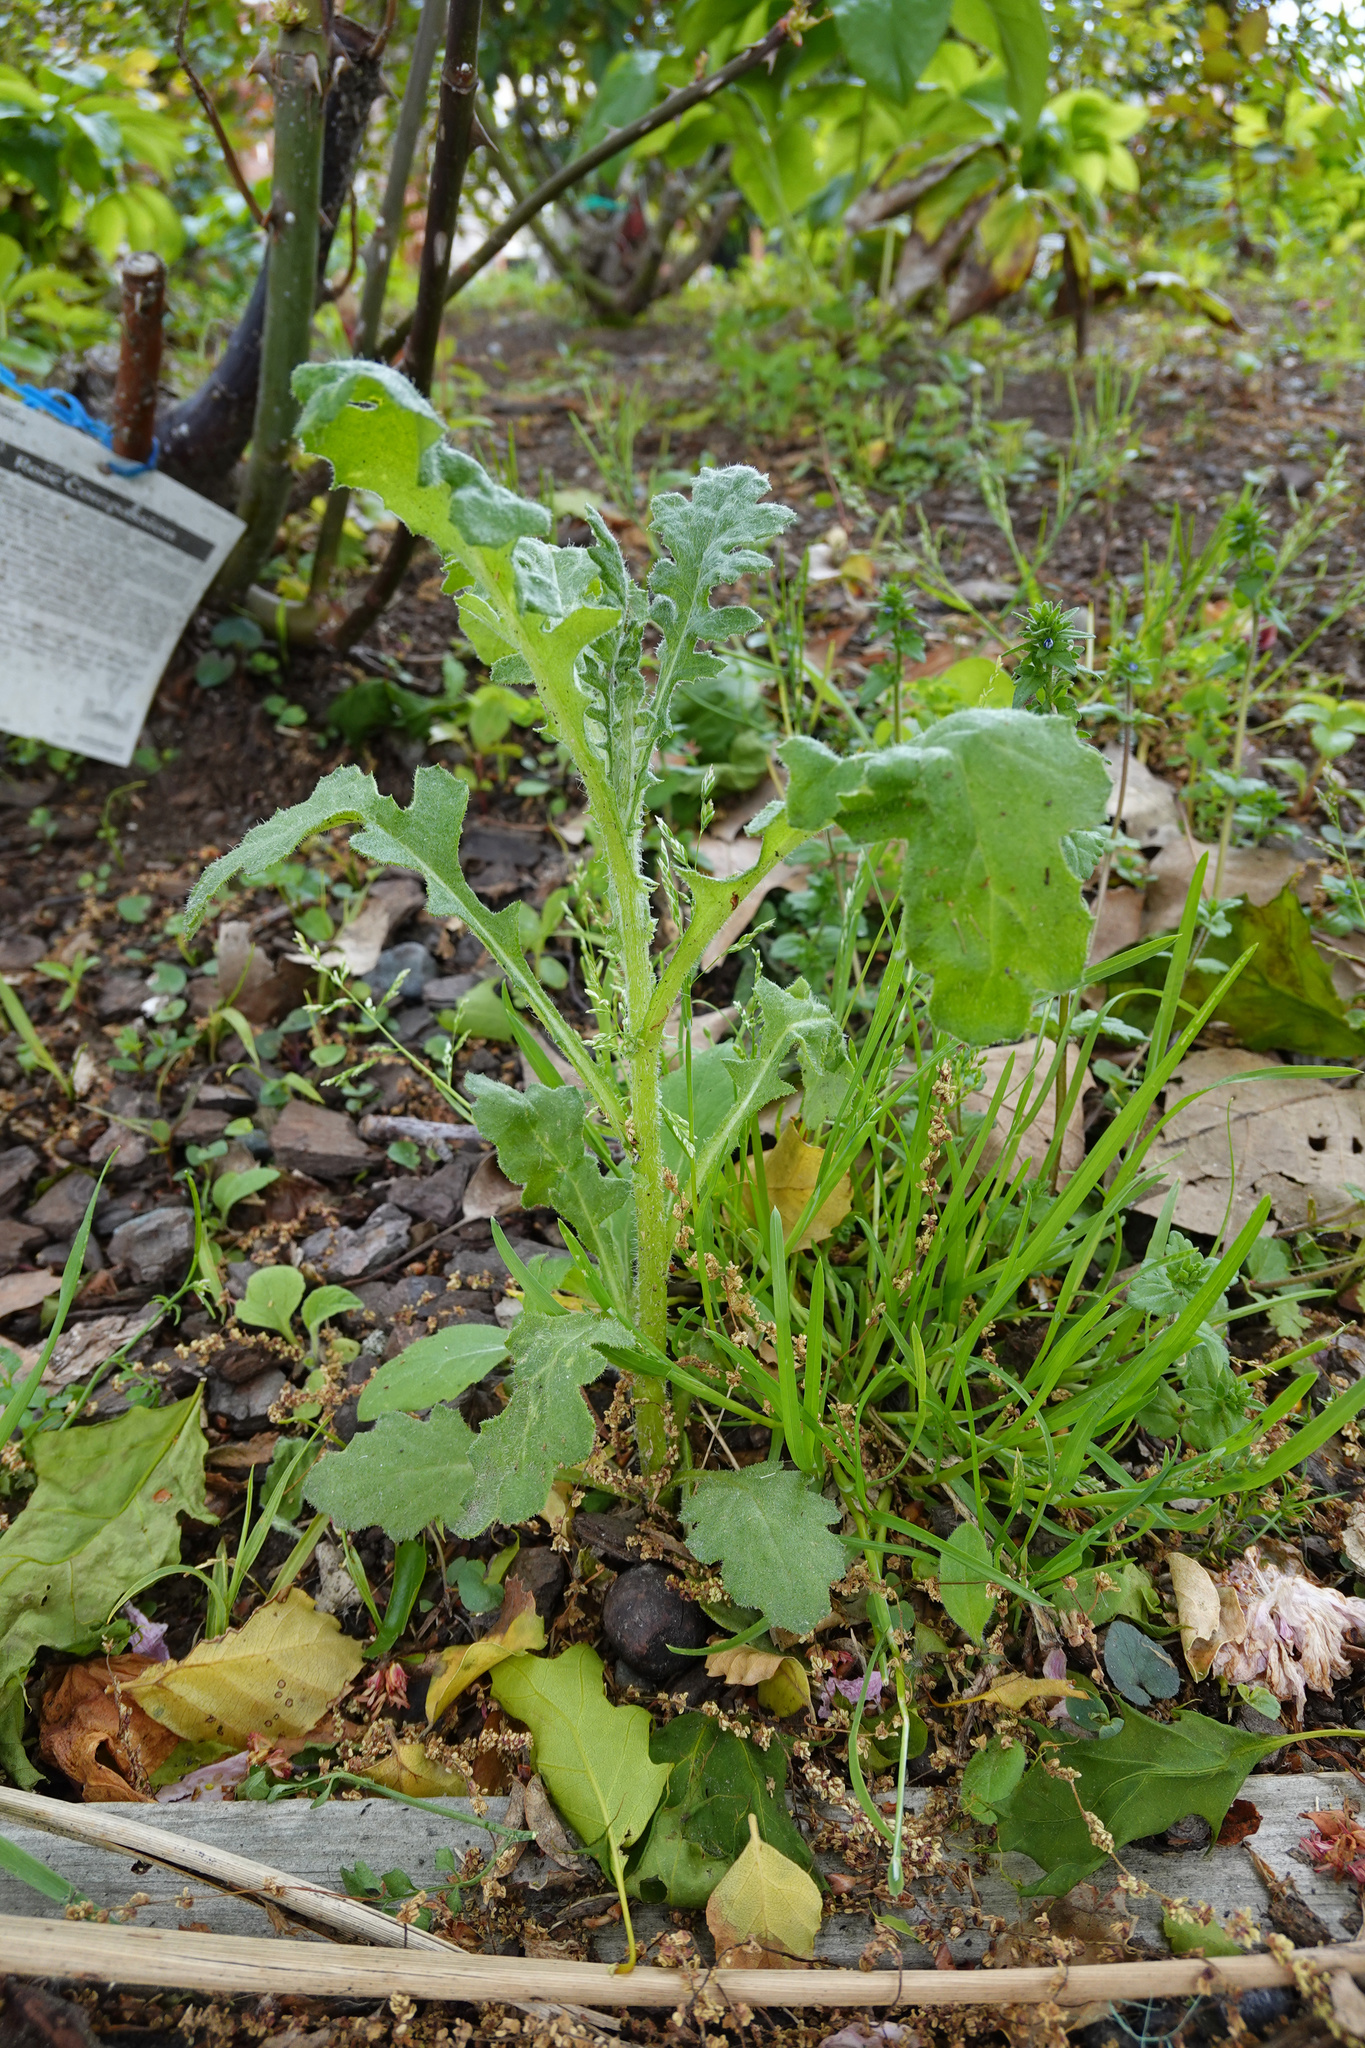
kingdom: Plantae
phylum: Tracheophyta
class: Magnoliopsida
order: Asterales
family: Asteraceae
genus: Senecio
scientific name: Senecio glomeratus
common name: Cutleaf burnweed
